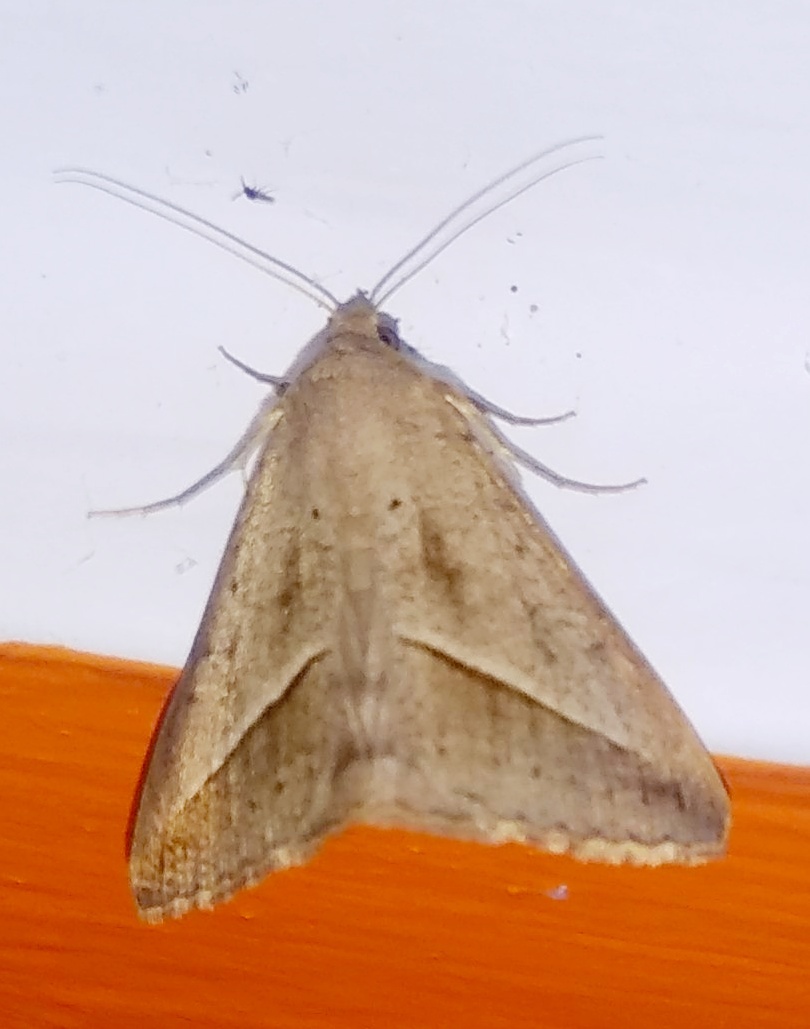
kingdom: Animalia
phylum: Arthropoda
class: Insecta
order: Lepidoptera
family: Erebidae
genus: Mocis
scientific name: Mocis frugalis
